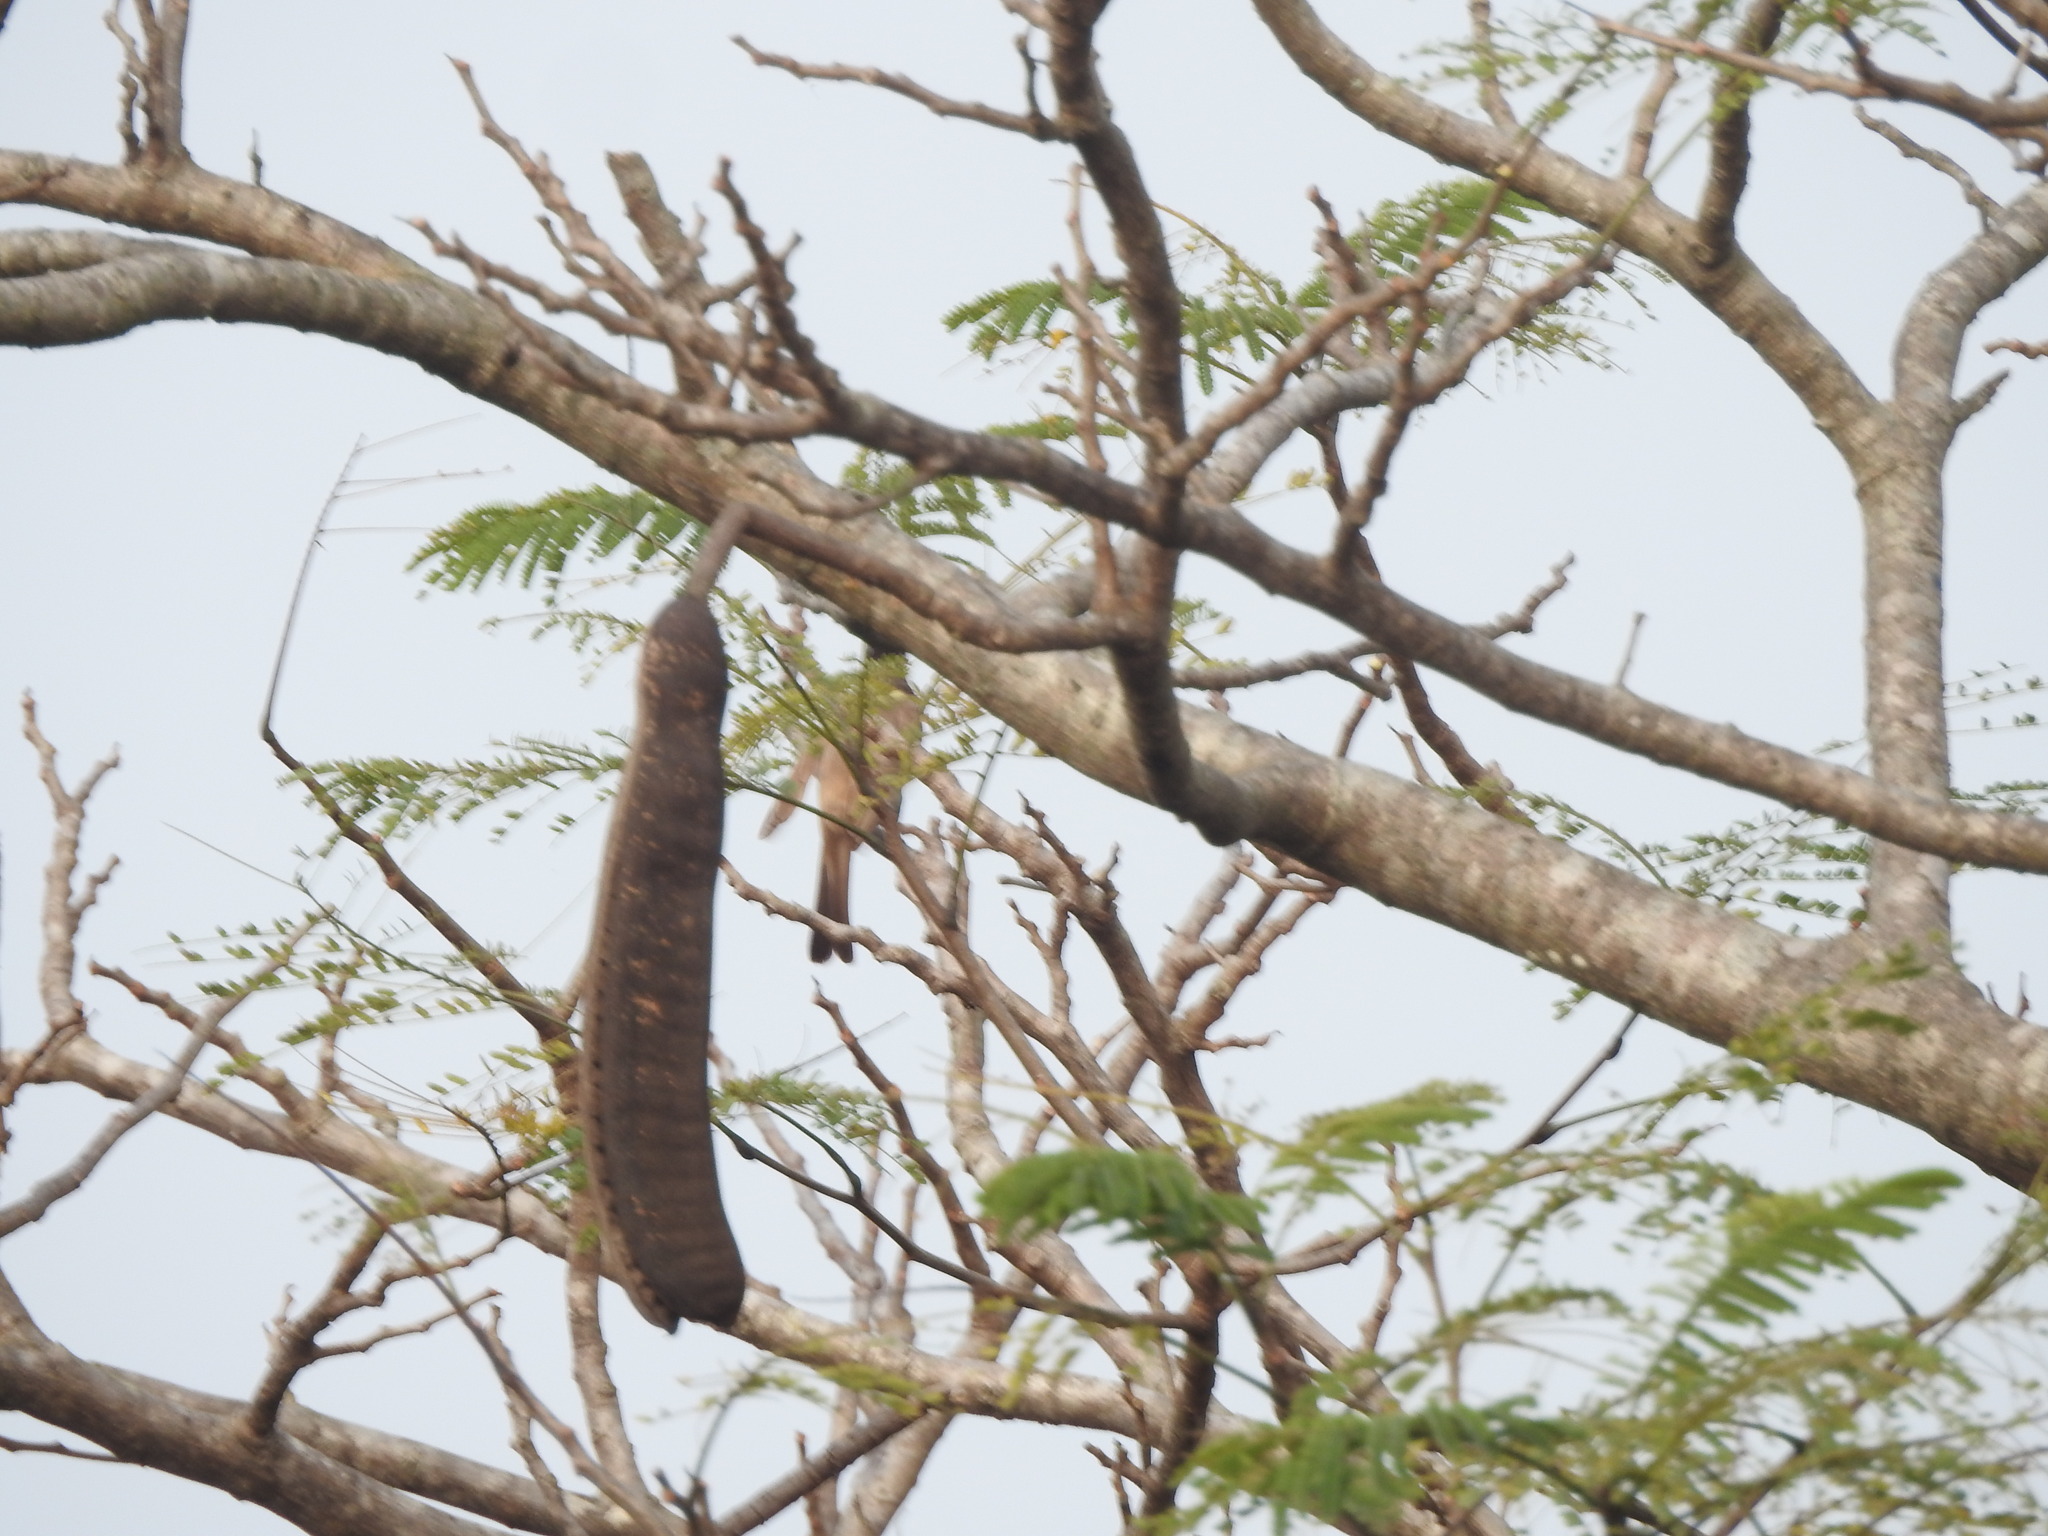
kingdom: Animalia
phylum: Chordata
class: Aves
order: Passeriformes
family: Pycnonotidae
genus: Pycnonotus
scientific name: Pycnonotus cafer
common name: Red-vented bulbul
